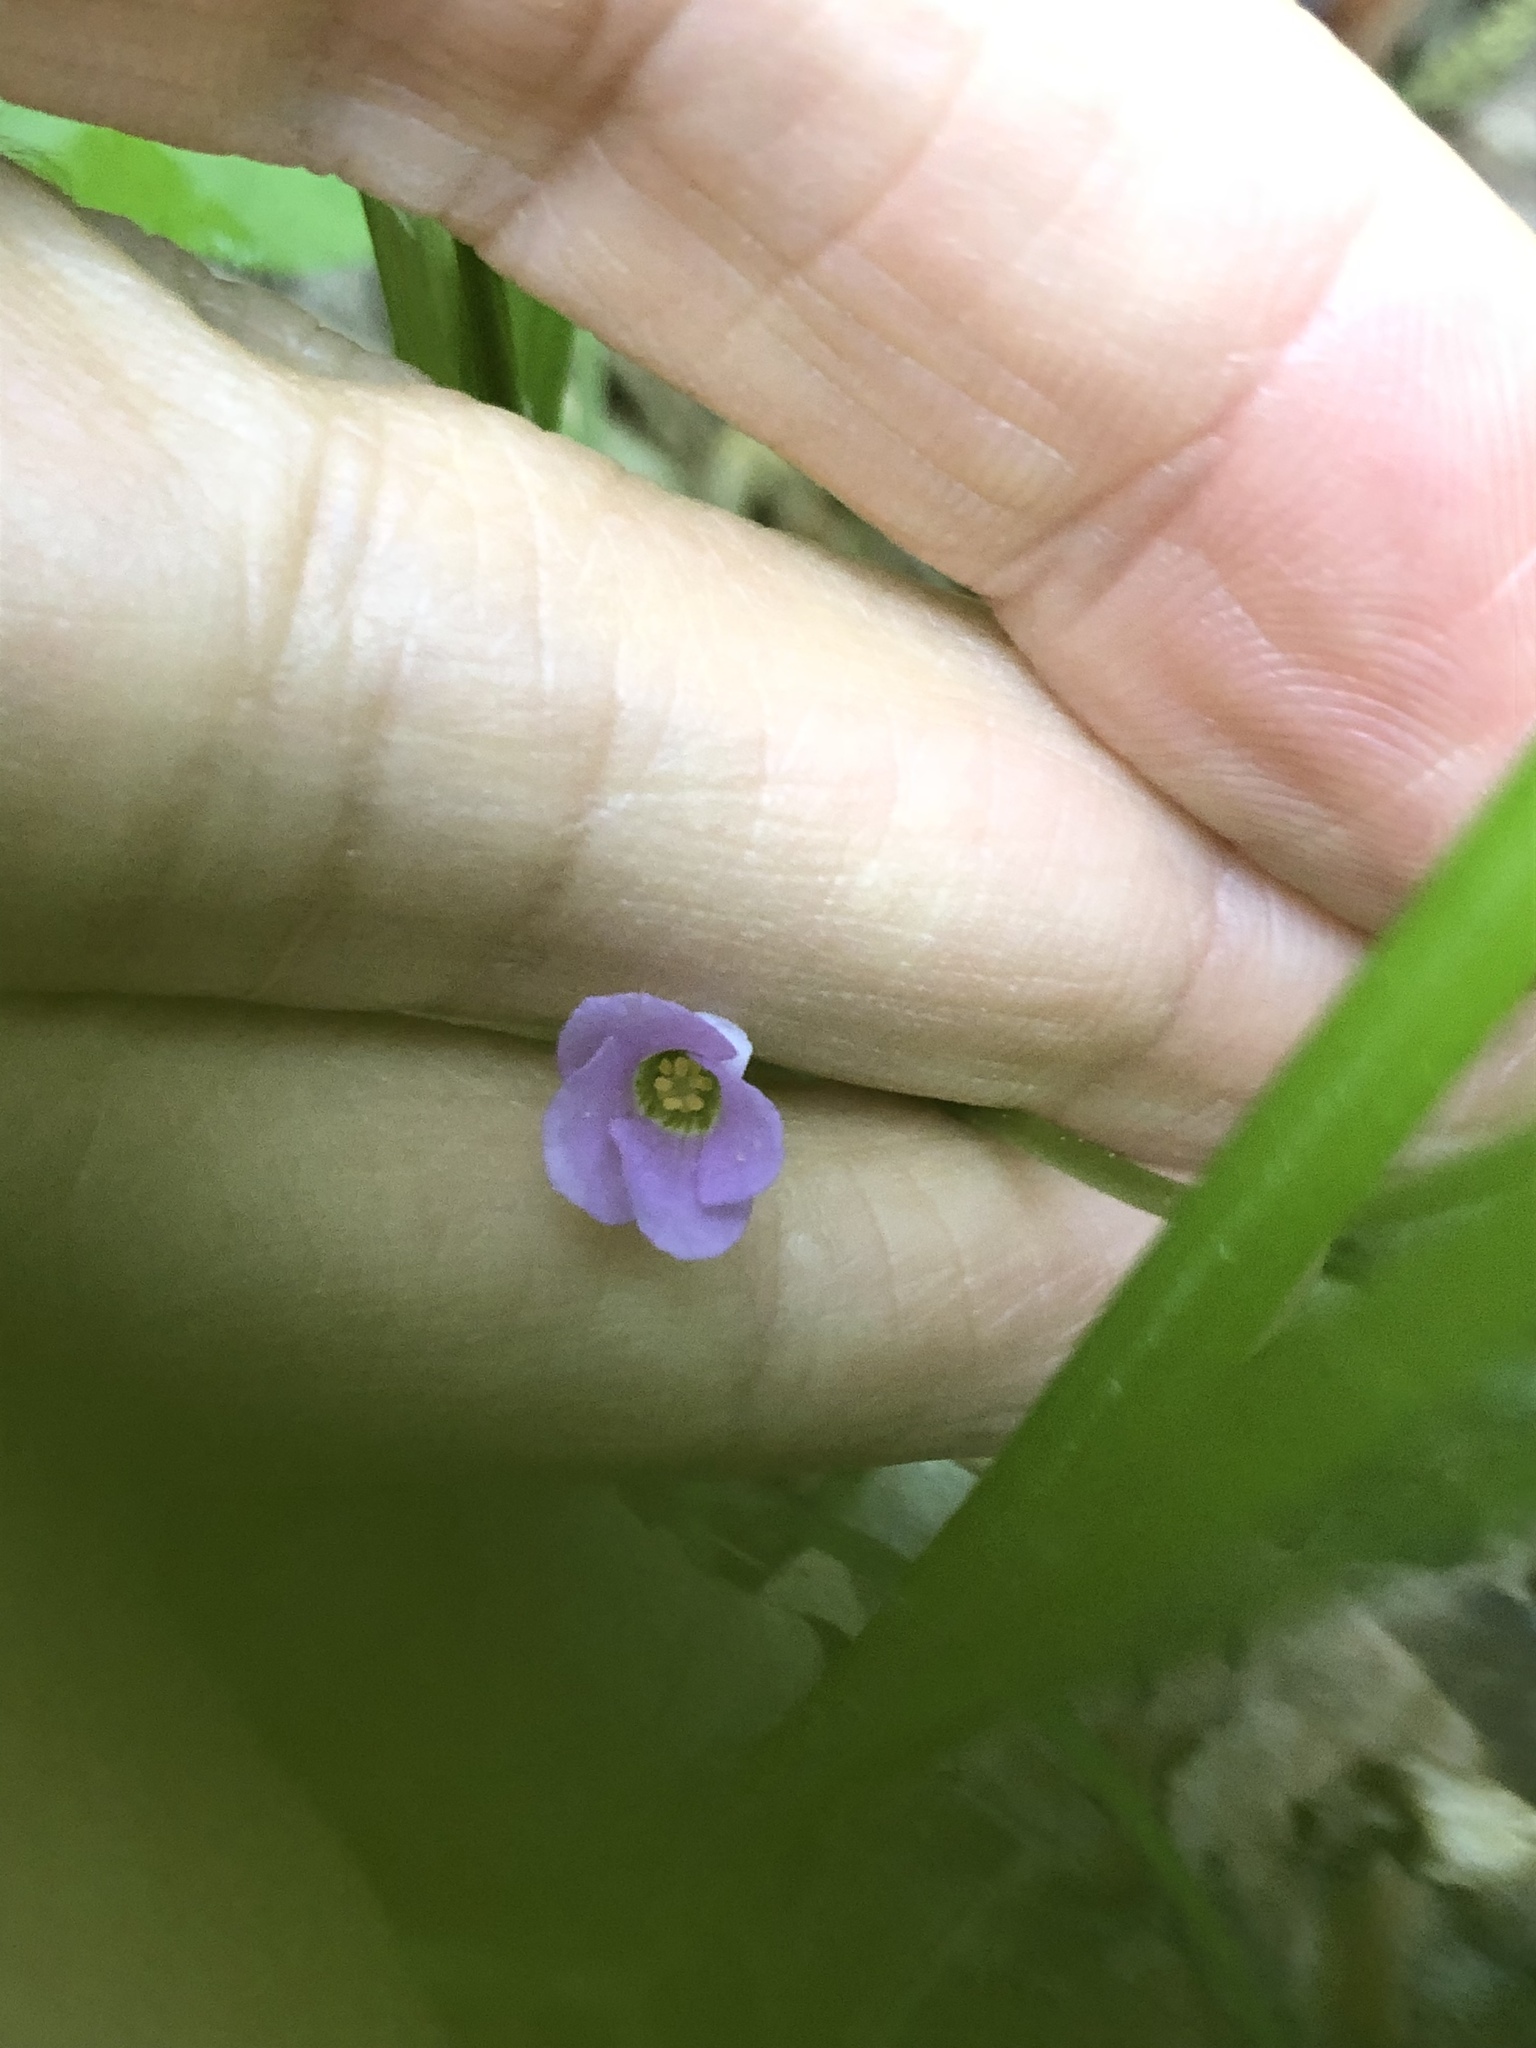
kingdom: Plantae
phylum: Tracheophyta
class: Magnoliopsida
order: Oxalidales
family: Oxalidaceae
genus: Oxalis
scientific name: Oxalis violacea
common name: Violet wood-sorrel
